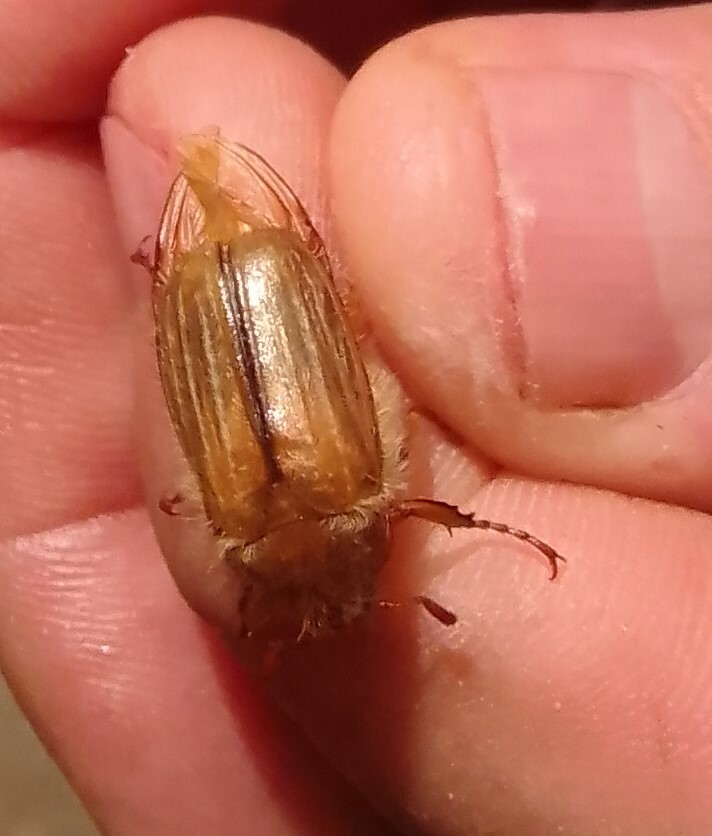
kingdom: Animalia
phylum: Arthropoda
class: Insecta
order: Coleoptera
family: Scarabaeidae
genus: Amphimallon
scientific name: Amphimallon solstitiale
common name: Summer chafer
